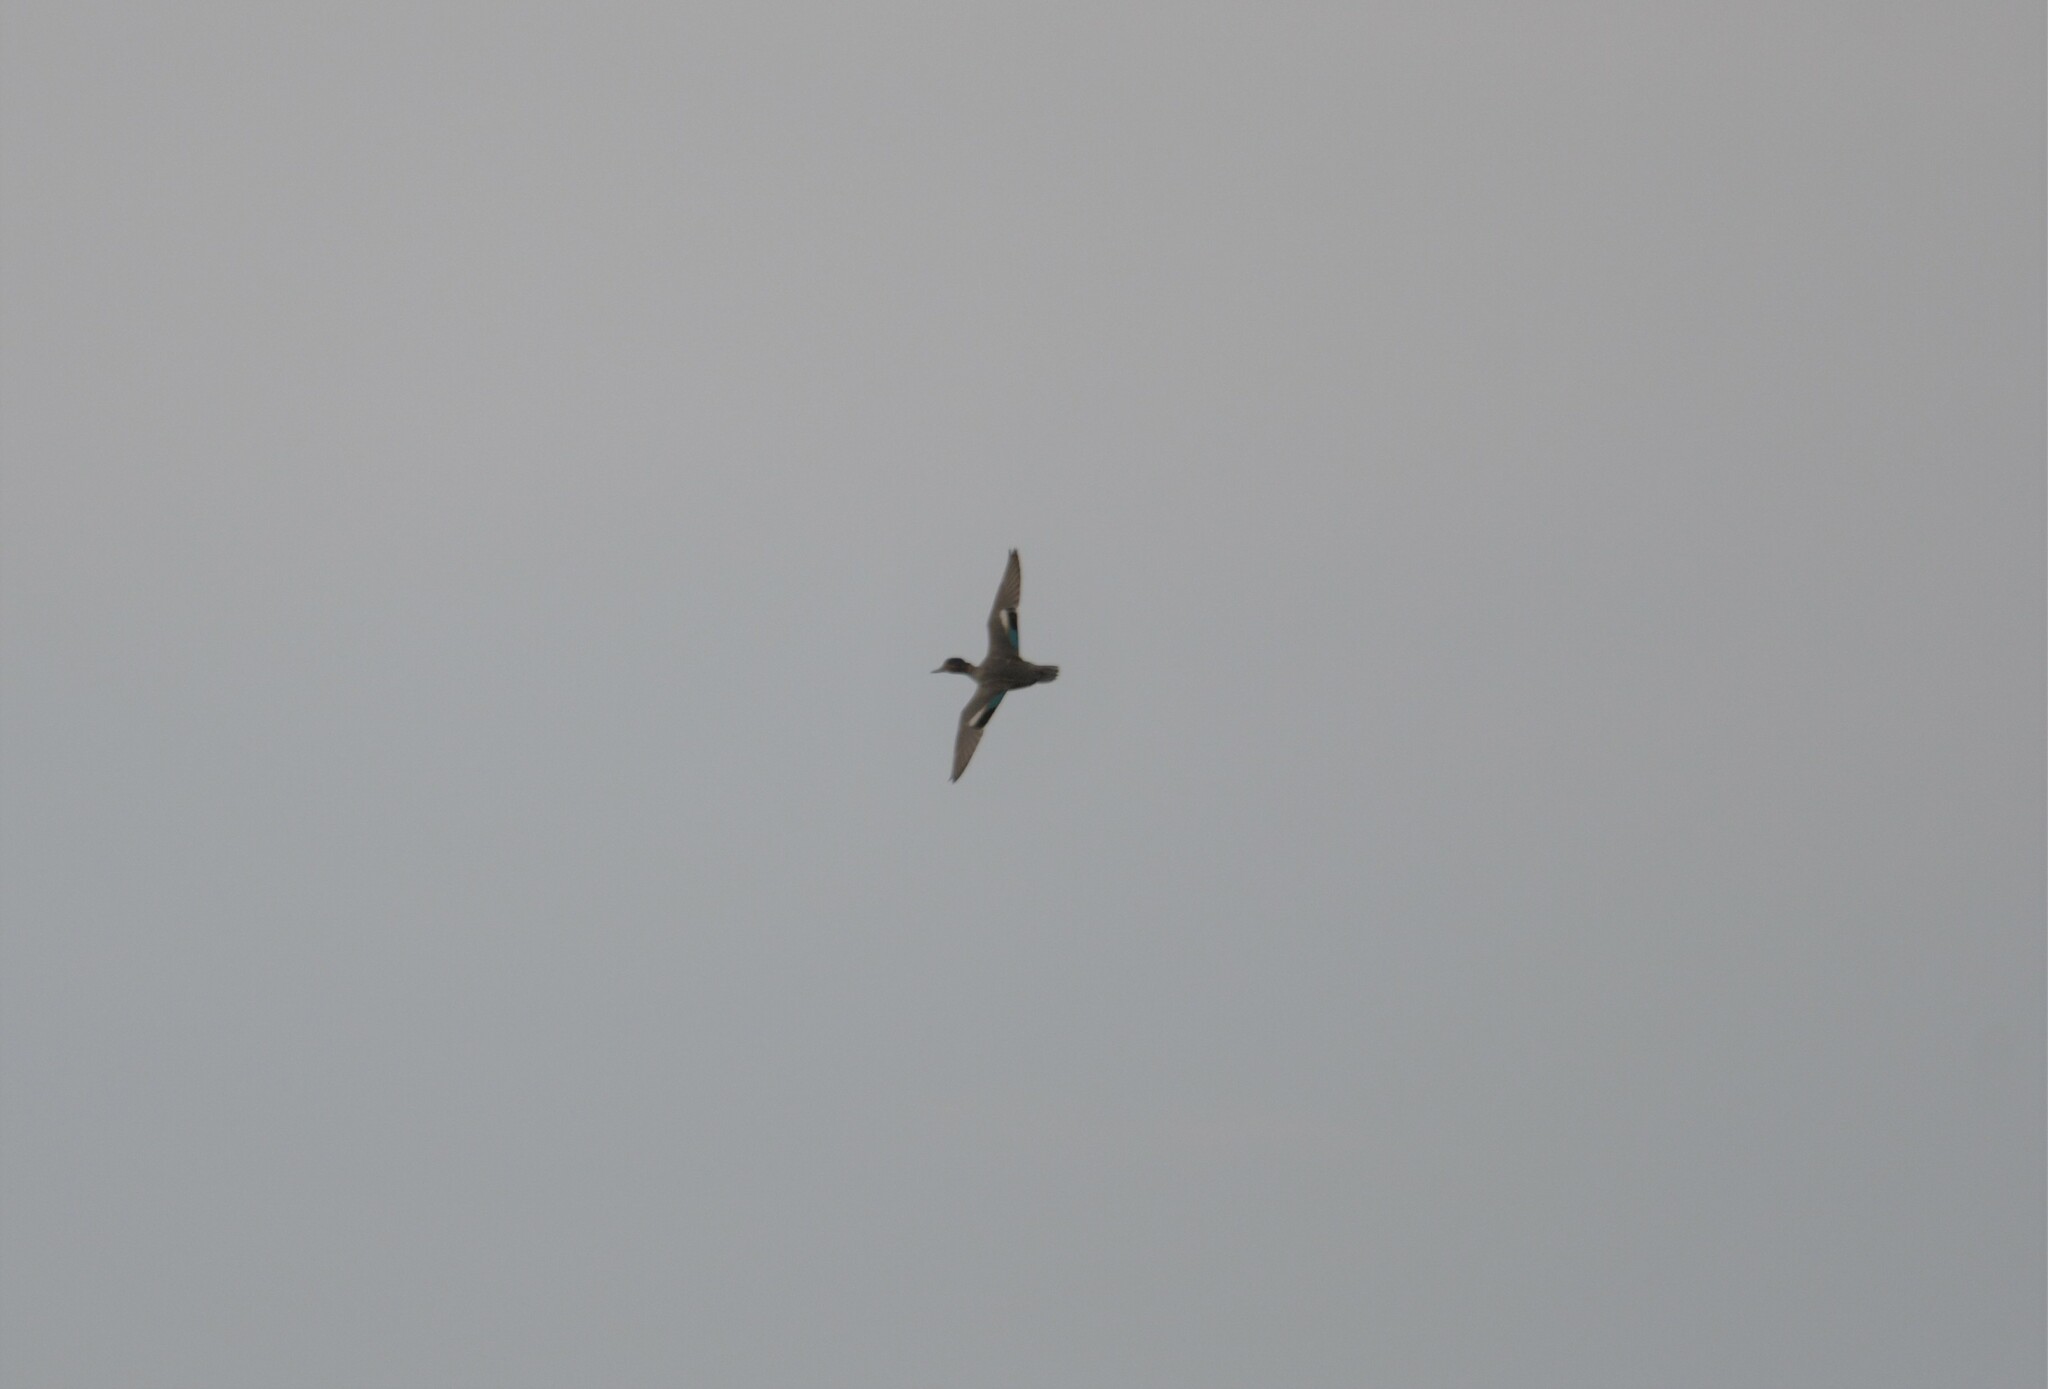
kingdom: Animalia
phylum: Chordata
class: Aves
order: Anseriformes
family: Anatidae
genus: Anas
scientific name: Anas crecca
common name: Eurasian teal
